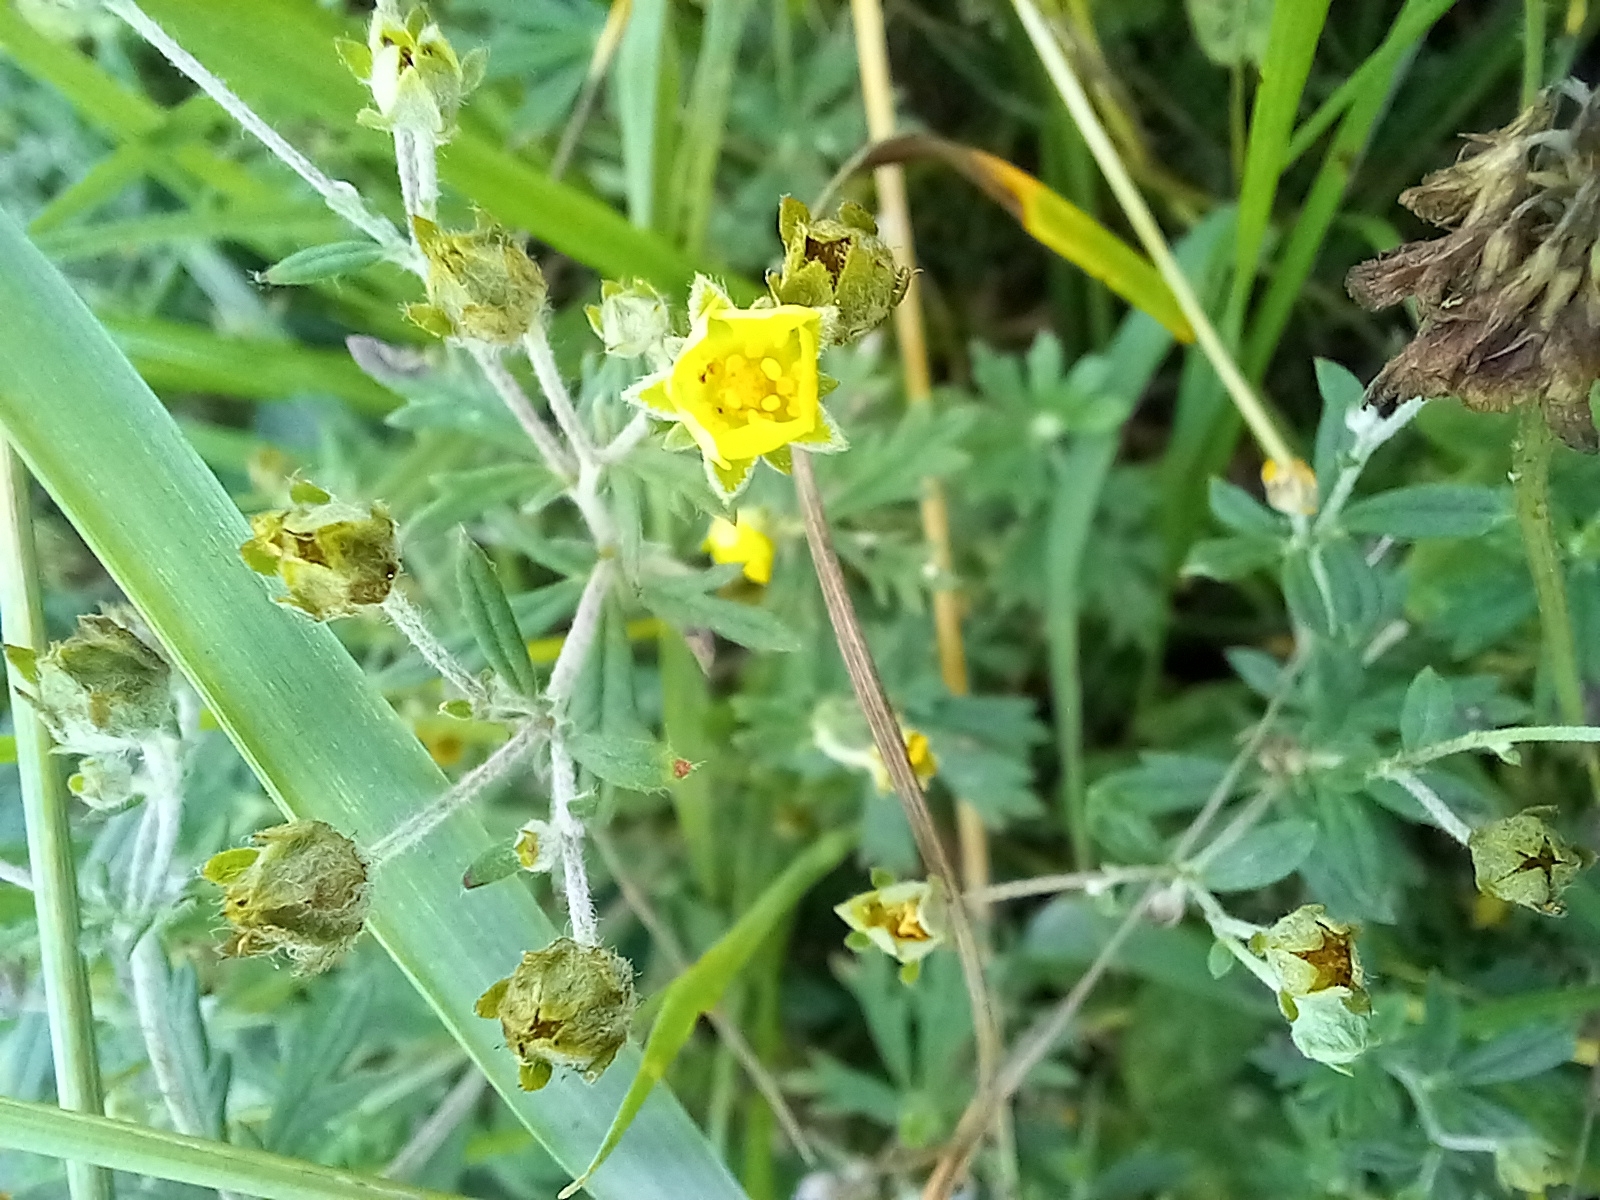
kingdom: Plantae
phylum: Tracheophyta
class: Magnoliopsida
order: Rosales
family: Rosaceae
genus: Potentilla
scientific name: Potentilla argentea
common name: Hoary cinquefoil
